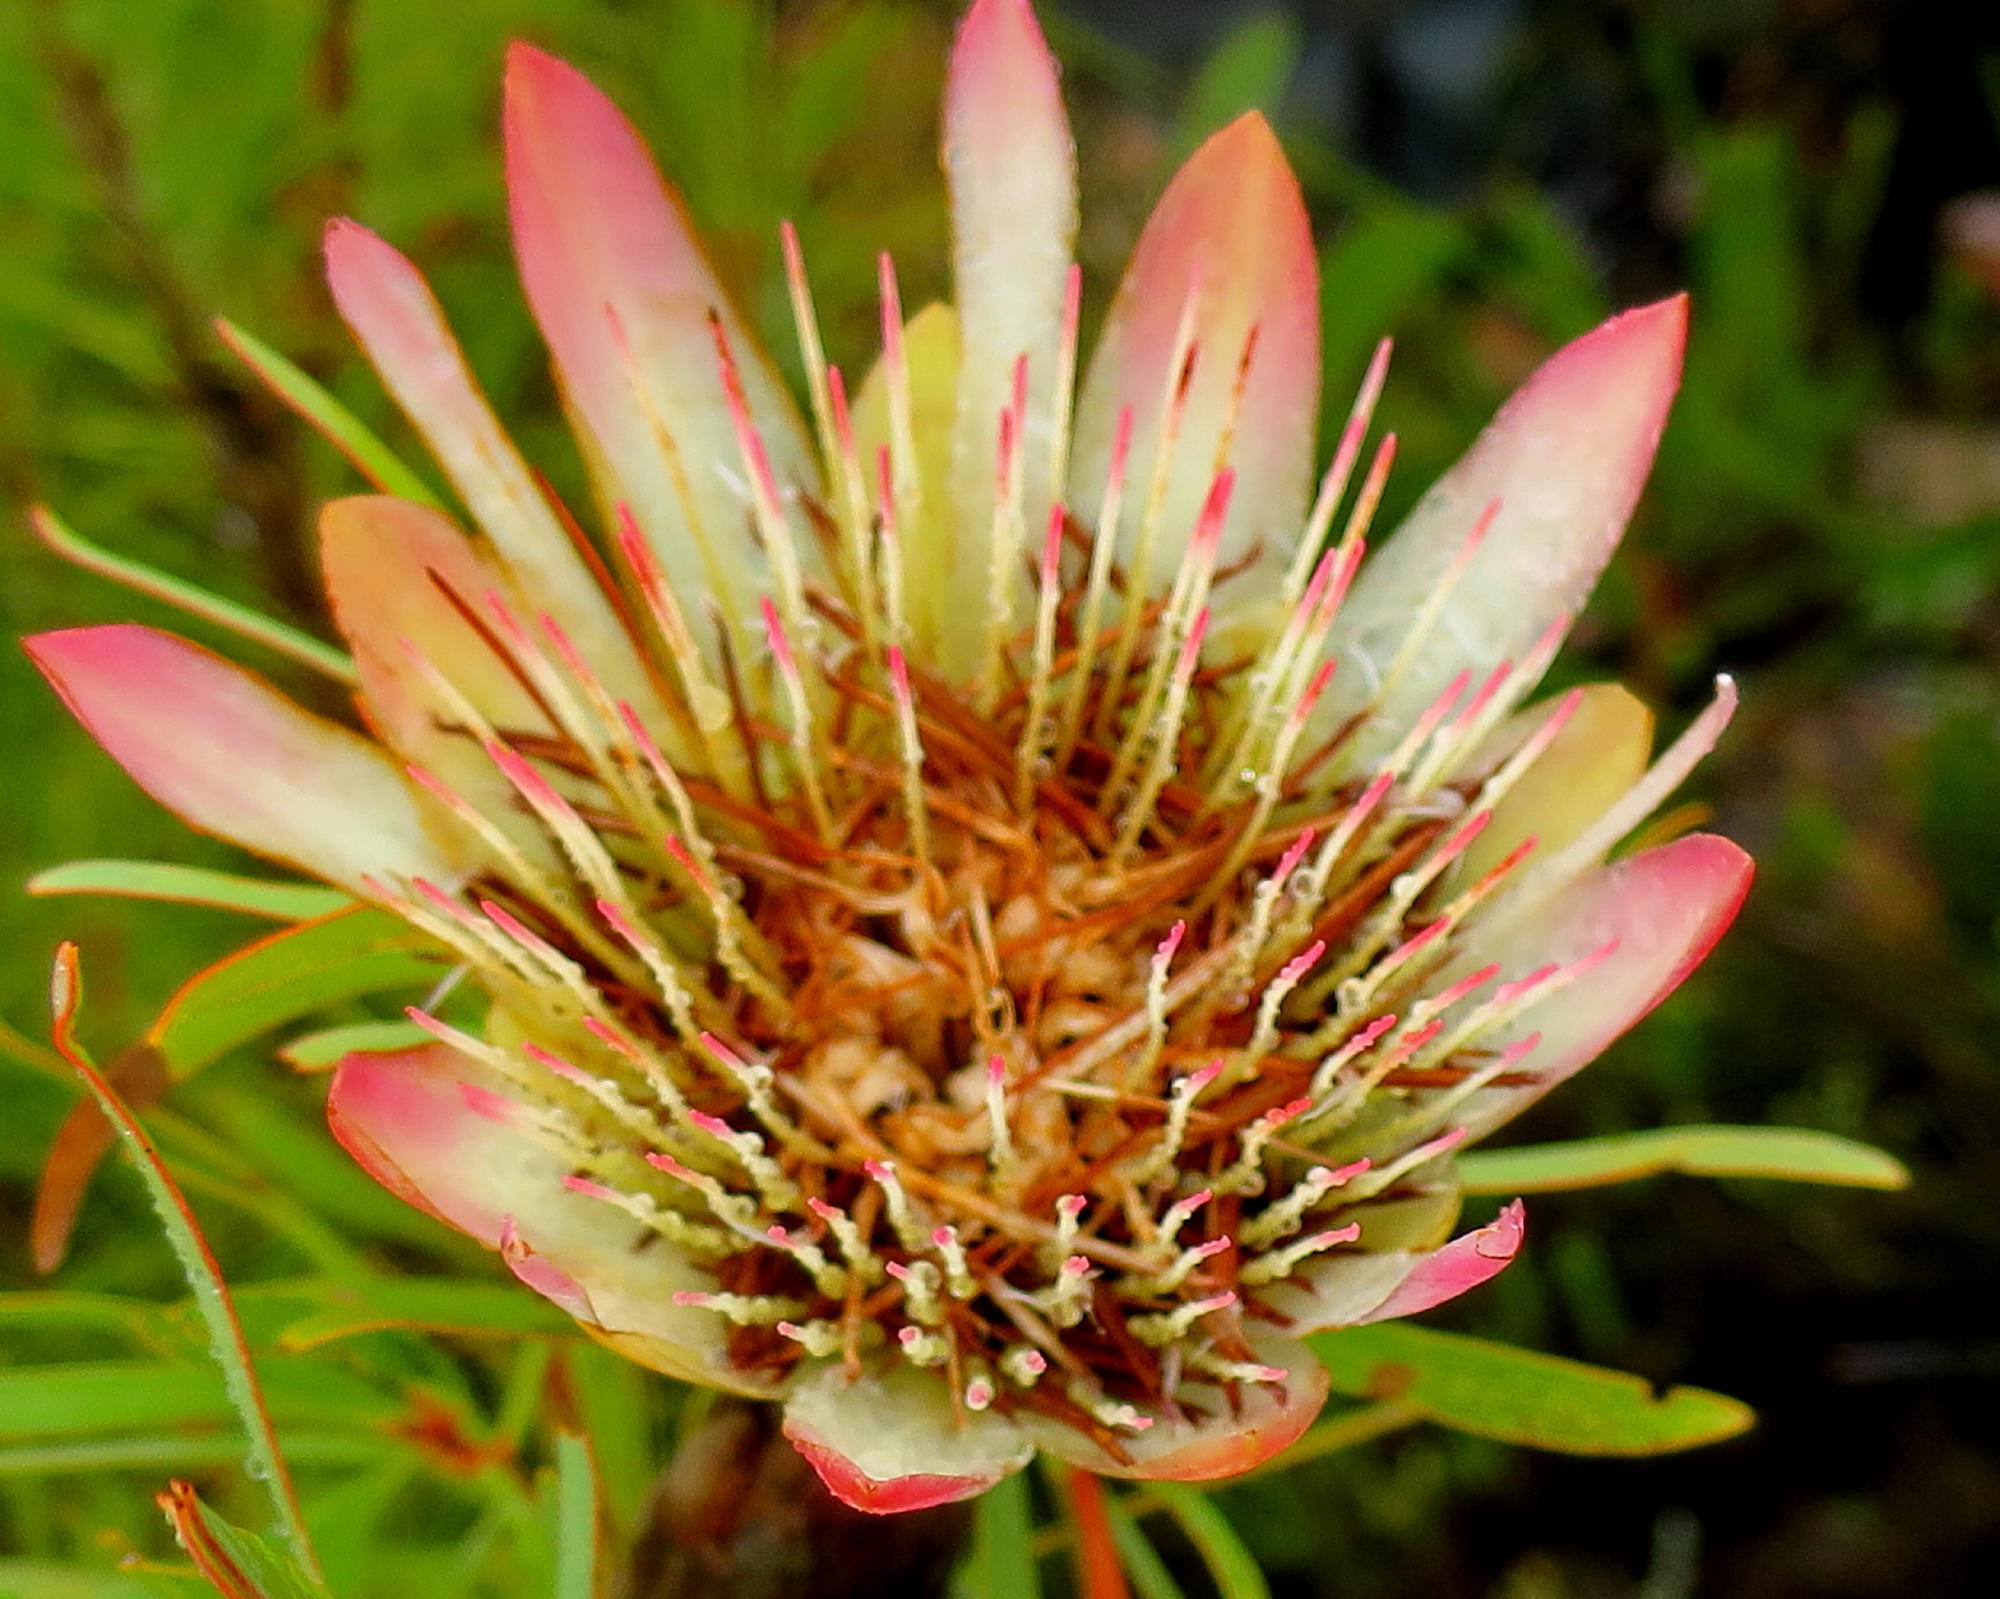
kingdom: Plantae
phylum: Tracheophyta
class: Magnoliopsida
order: Proteales
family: Proteaceae
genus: Protea
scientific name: Protea repens
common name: Sugarbush
